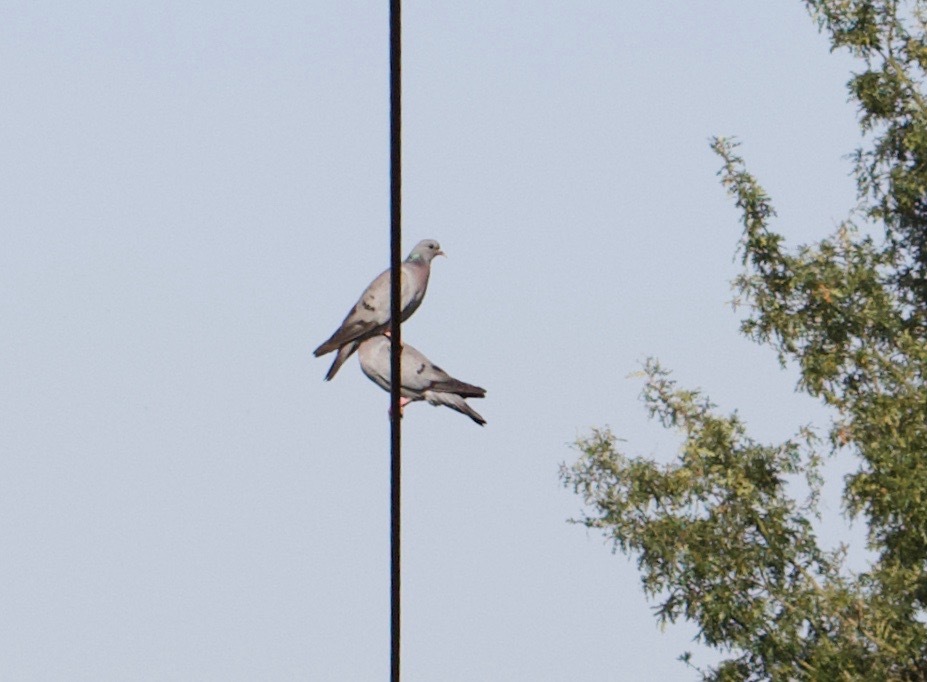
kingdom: Animalia
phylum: Chordata
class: Aves
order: Columbiformes
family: Columbidae
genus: Columba
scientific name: Columba oenas
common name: Stock dove
